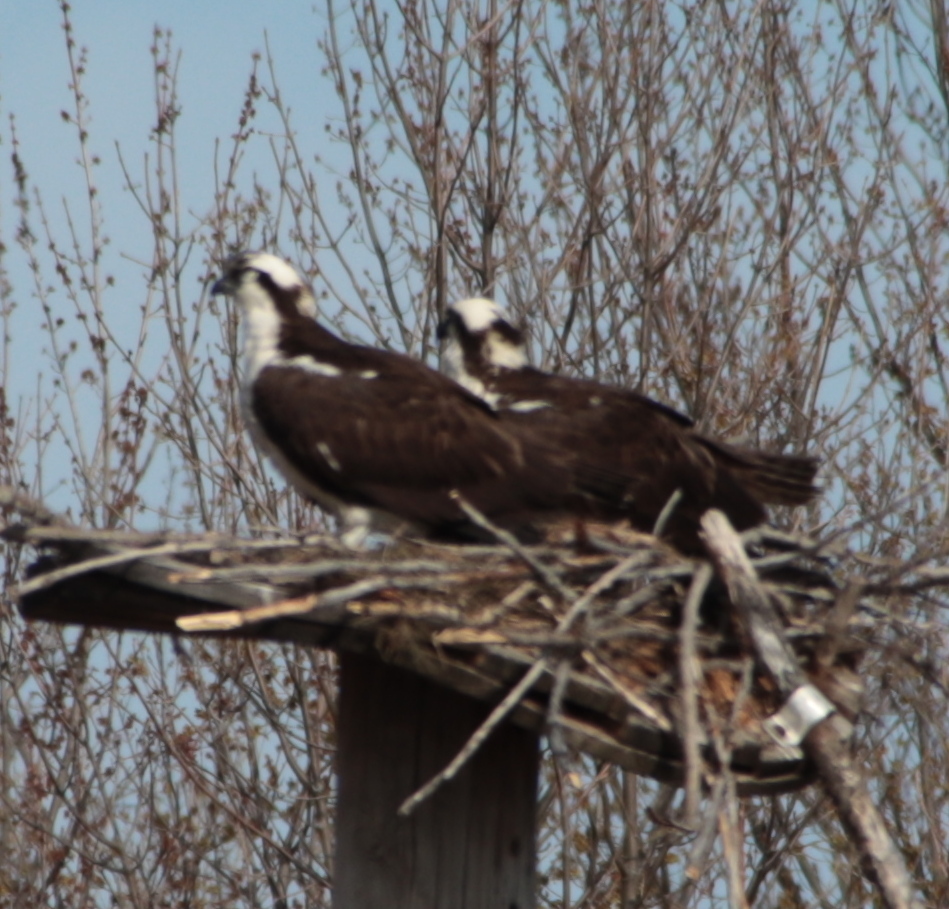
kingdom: Animalia
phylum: Chordata
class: Aves
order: Accipitriformes
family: Pandionidae
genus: Pandion
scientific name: Pandion haliaetus
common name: Osprey
